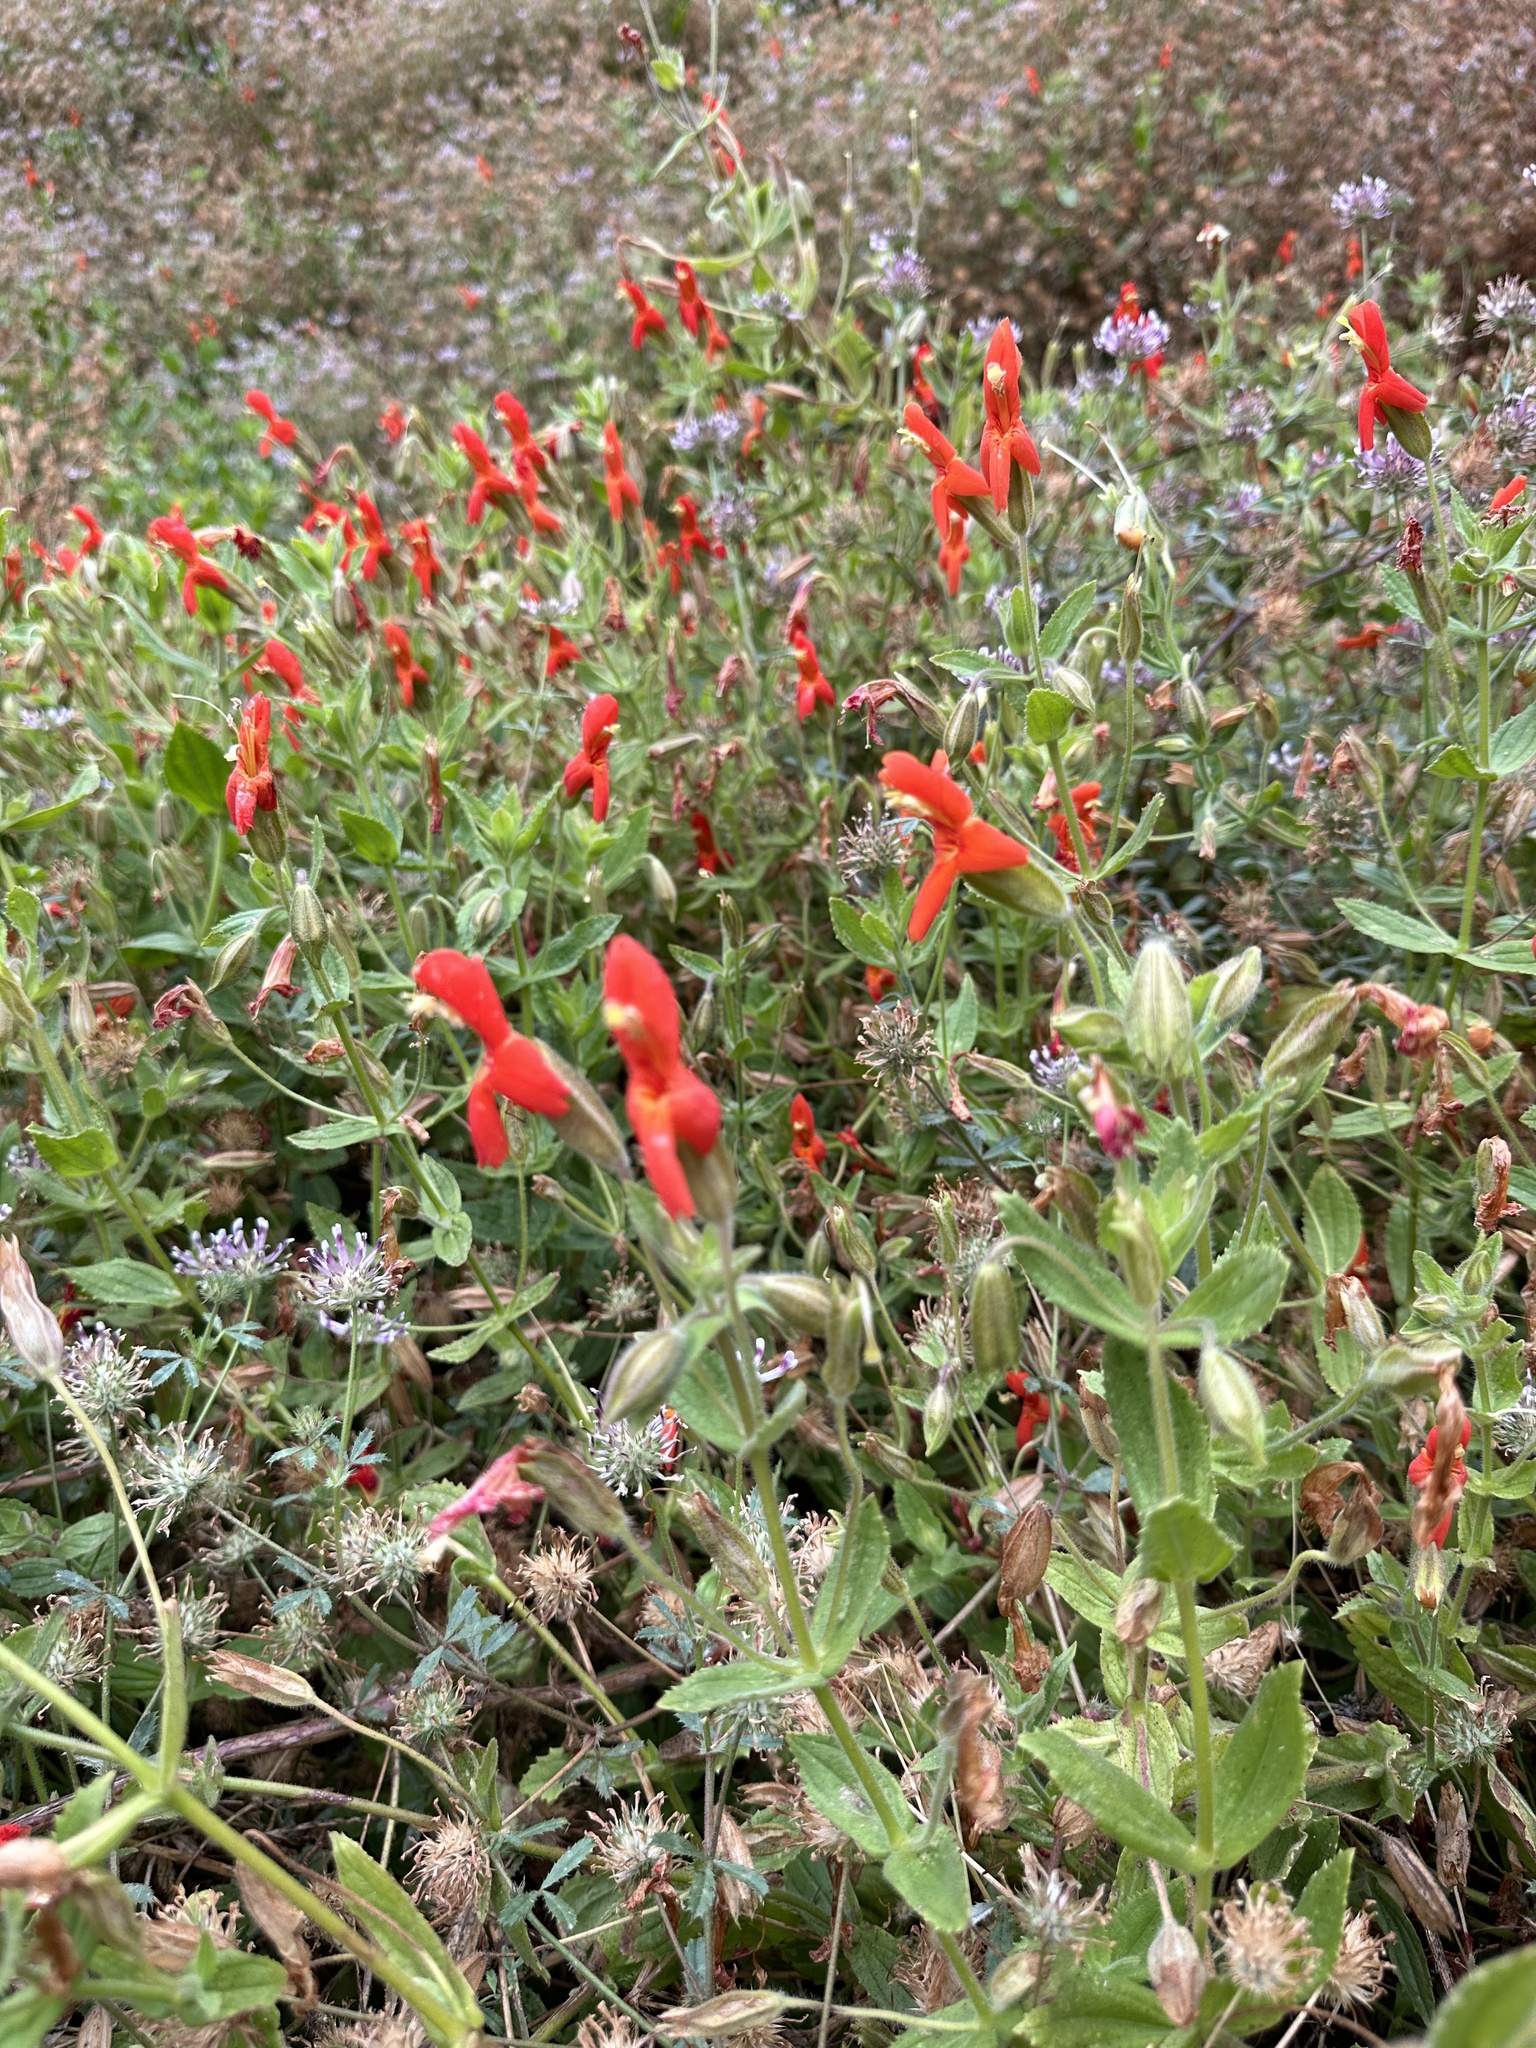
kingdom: Plantae
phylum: Tracheophyta
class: Magnoliopsida
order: Lamiales
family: Phrymaceae
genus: Erythranthe
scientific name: Erythranthe cardinalis
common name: Scarlet monkey-flower
